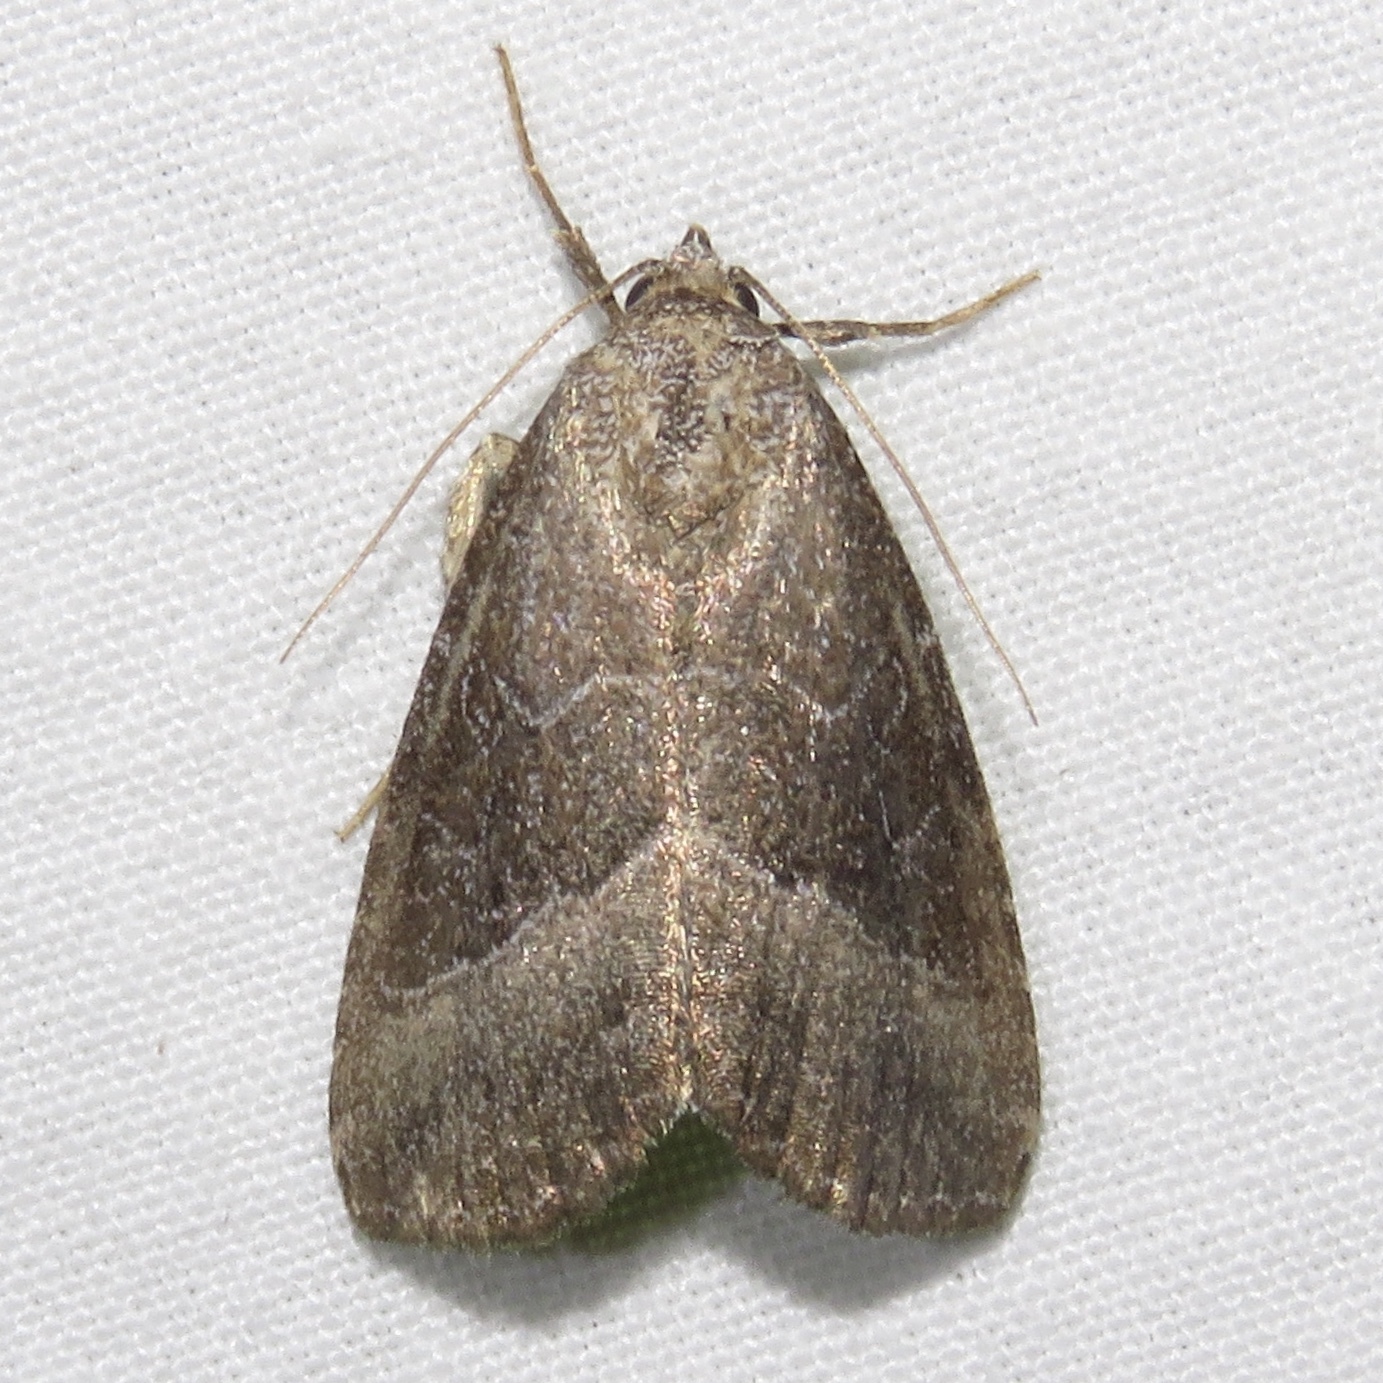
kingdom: Animalia
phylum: Arthropoda
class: Insecta
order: Lepidoptera
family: Noctuidae
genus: Ogdoconta
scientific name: Ogdoconta cinereola
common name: Common pinkband
